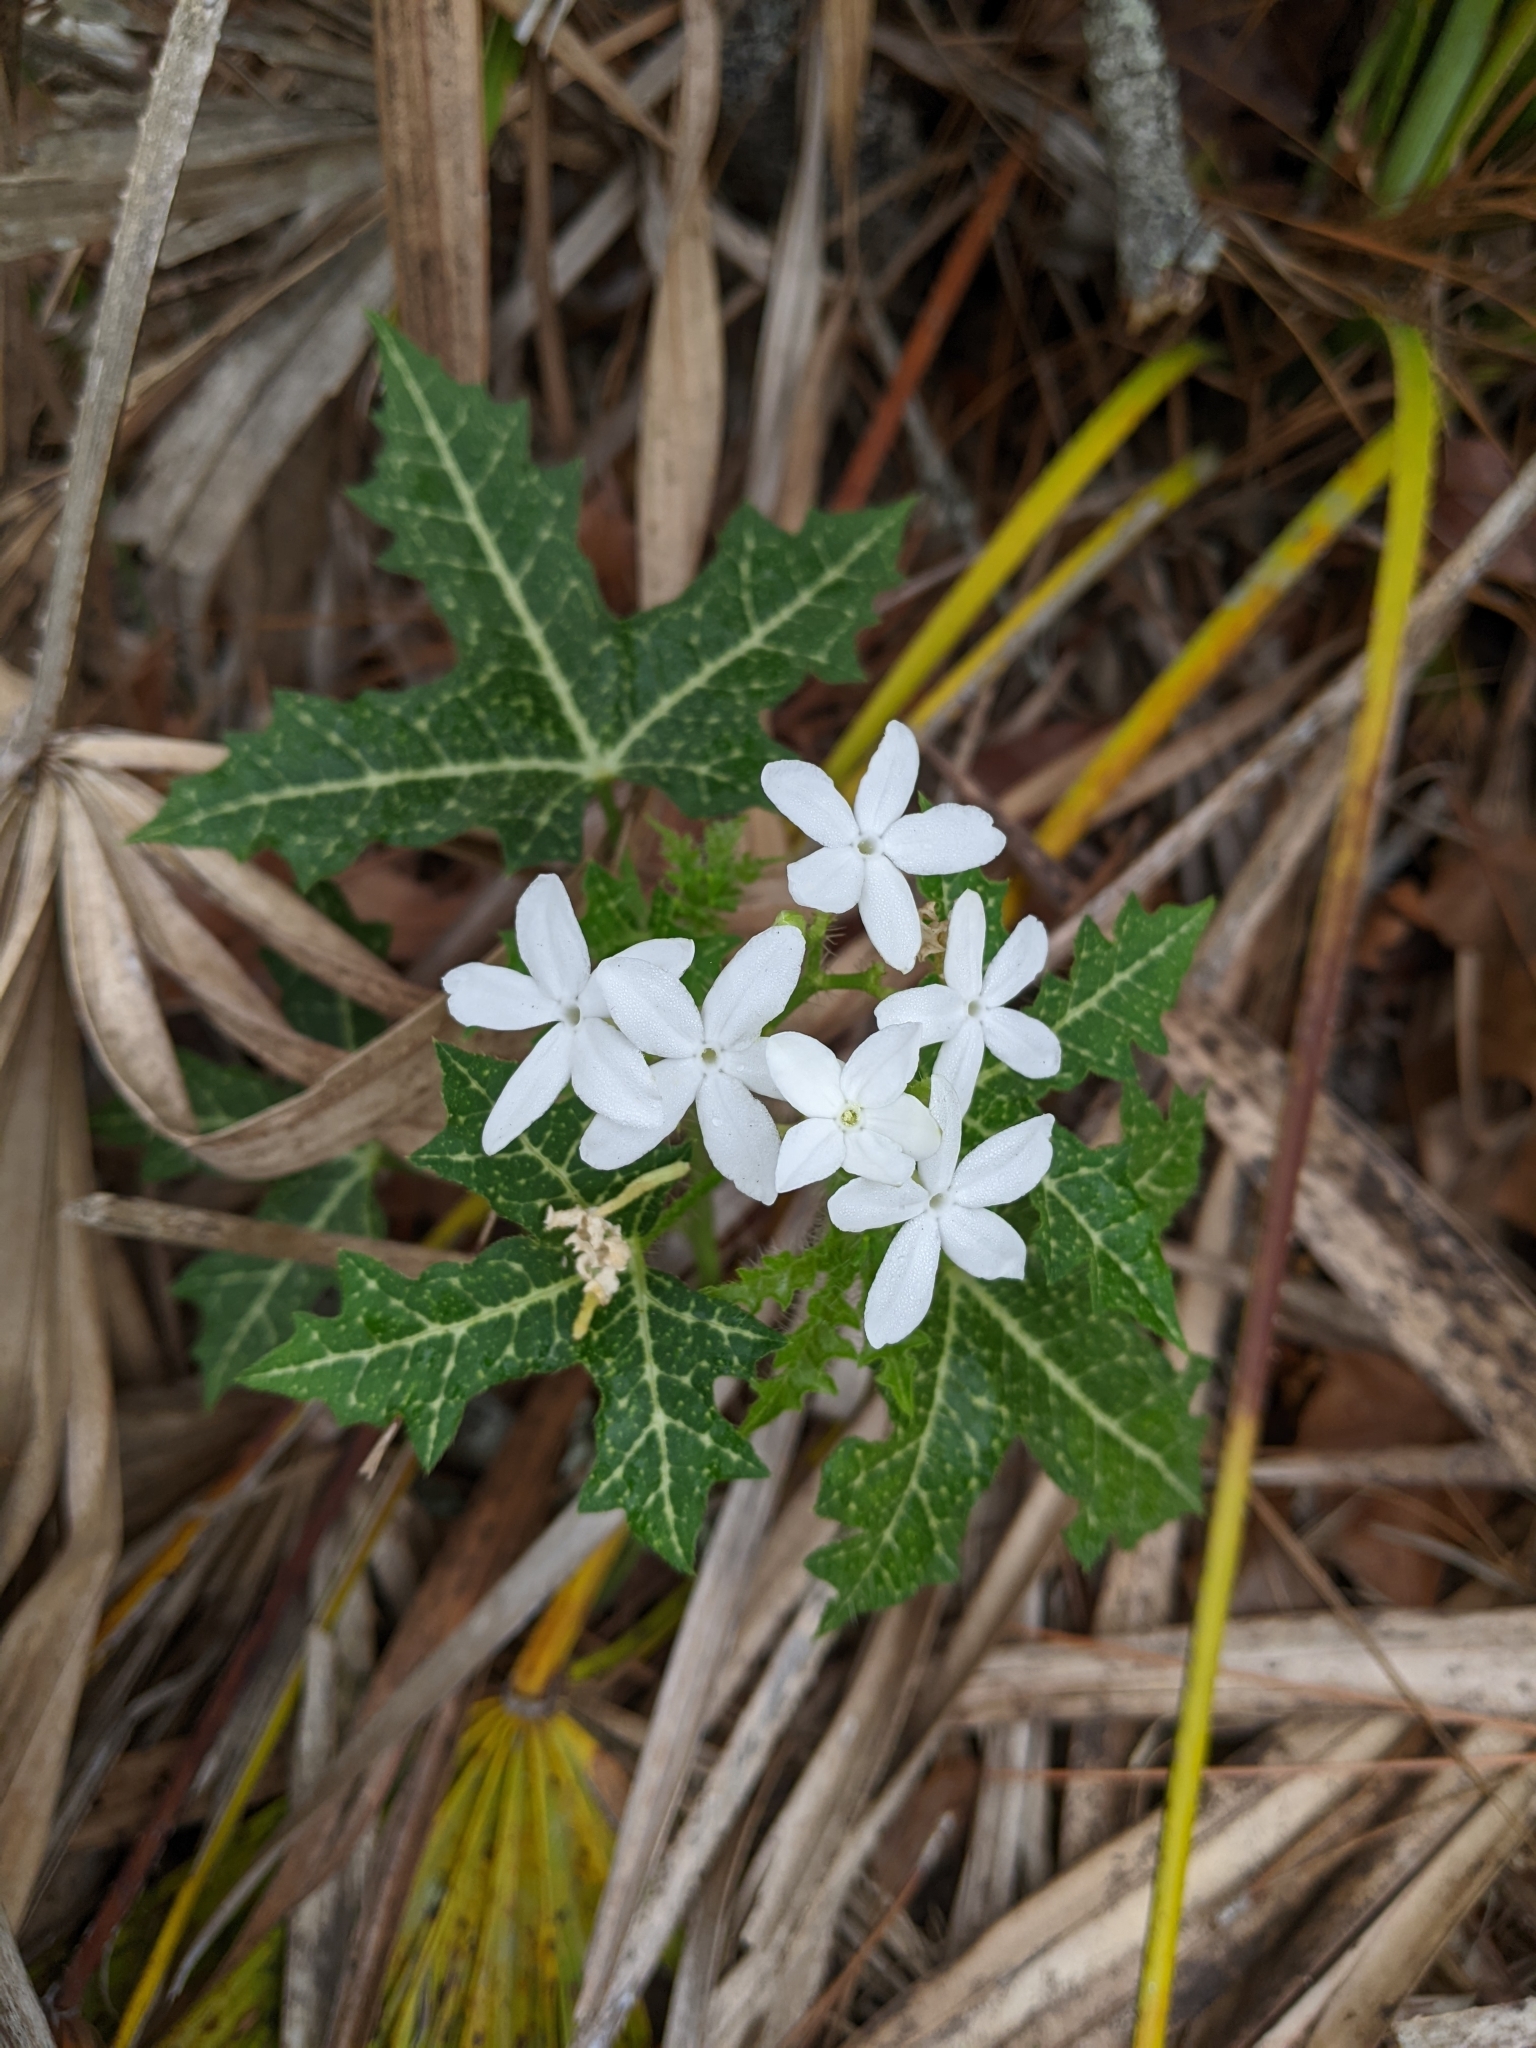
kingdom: Plantae
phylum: Tracheophyta
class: Magnoliopsida
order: Malpighiales
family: Euphorbiaceae
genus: Cnidoscolus
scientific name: Cnidoscolus stimulosus
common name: Bull-nettle
